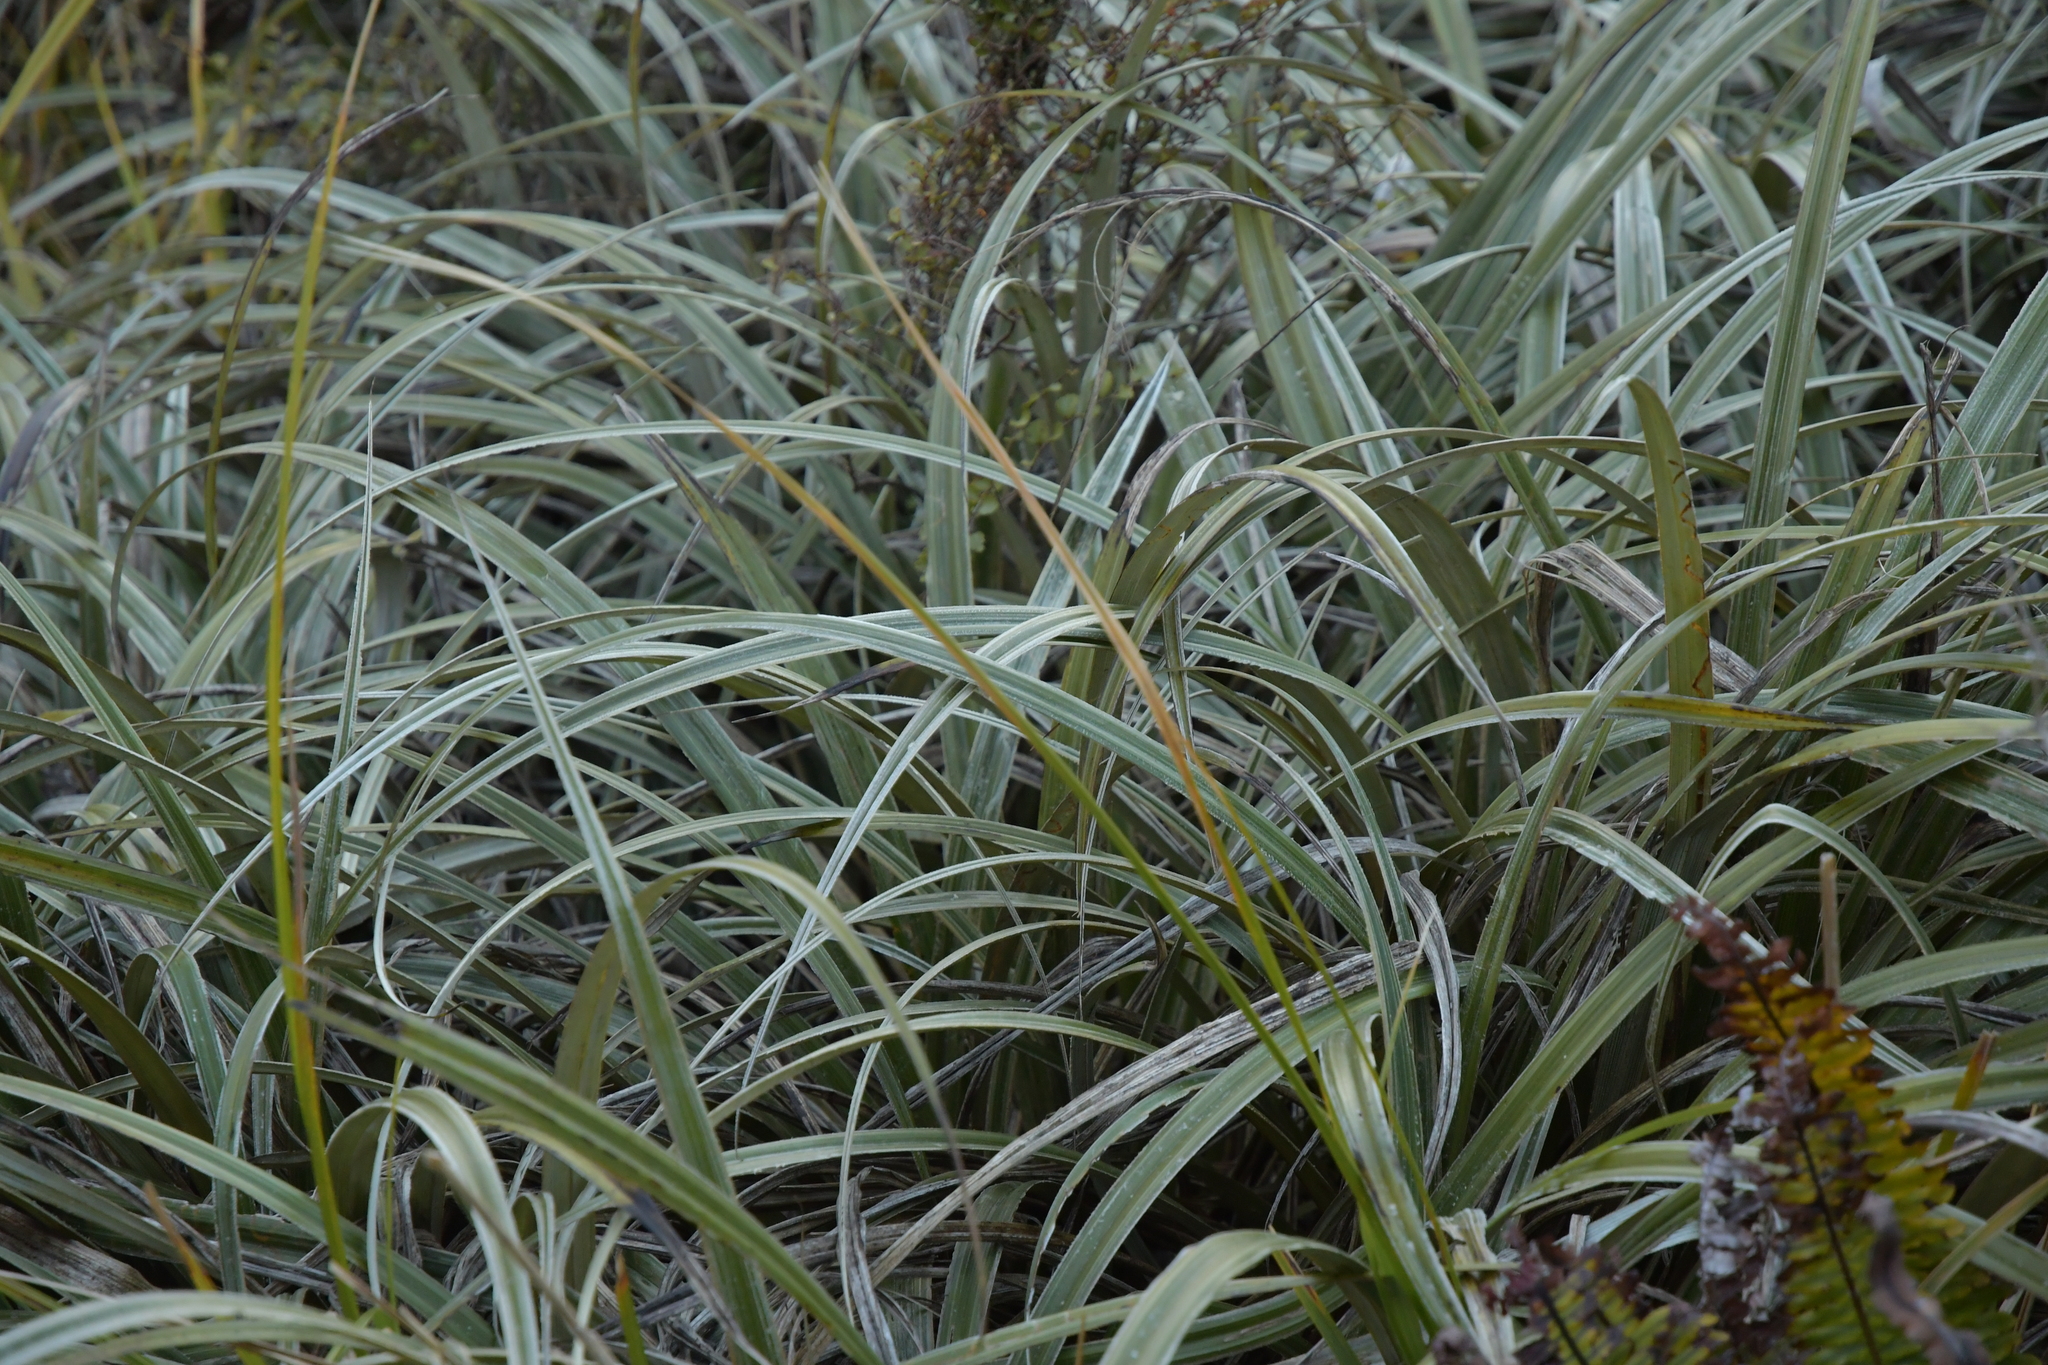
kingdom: Plantae
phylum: Tracheophyta
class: Liliopsida
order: Asparagales
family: Asteliaceae
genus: Astelia
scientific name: Astelia nervosa
